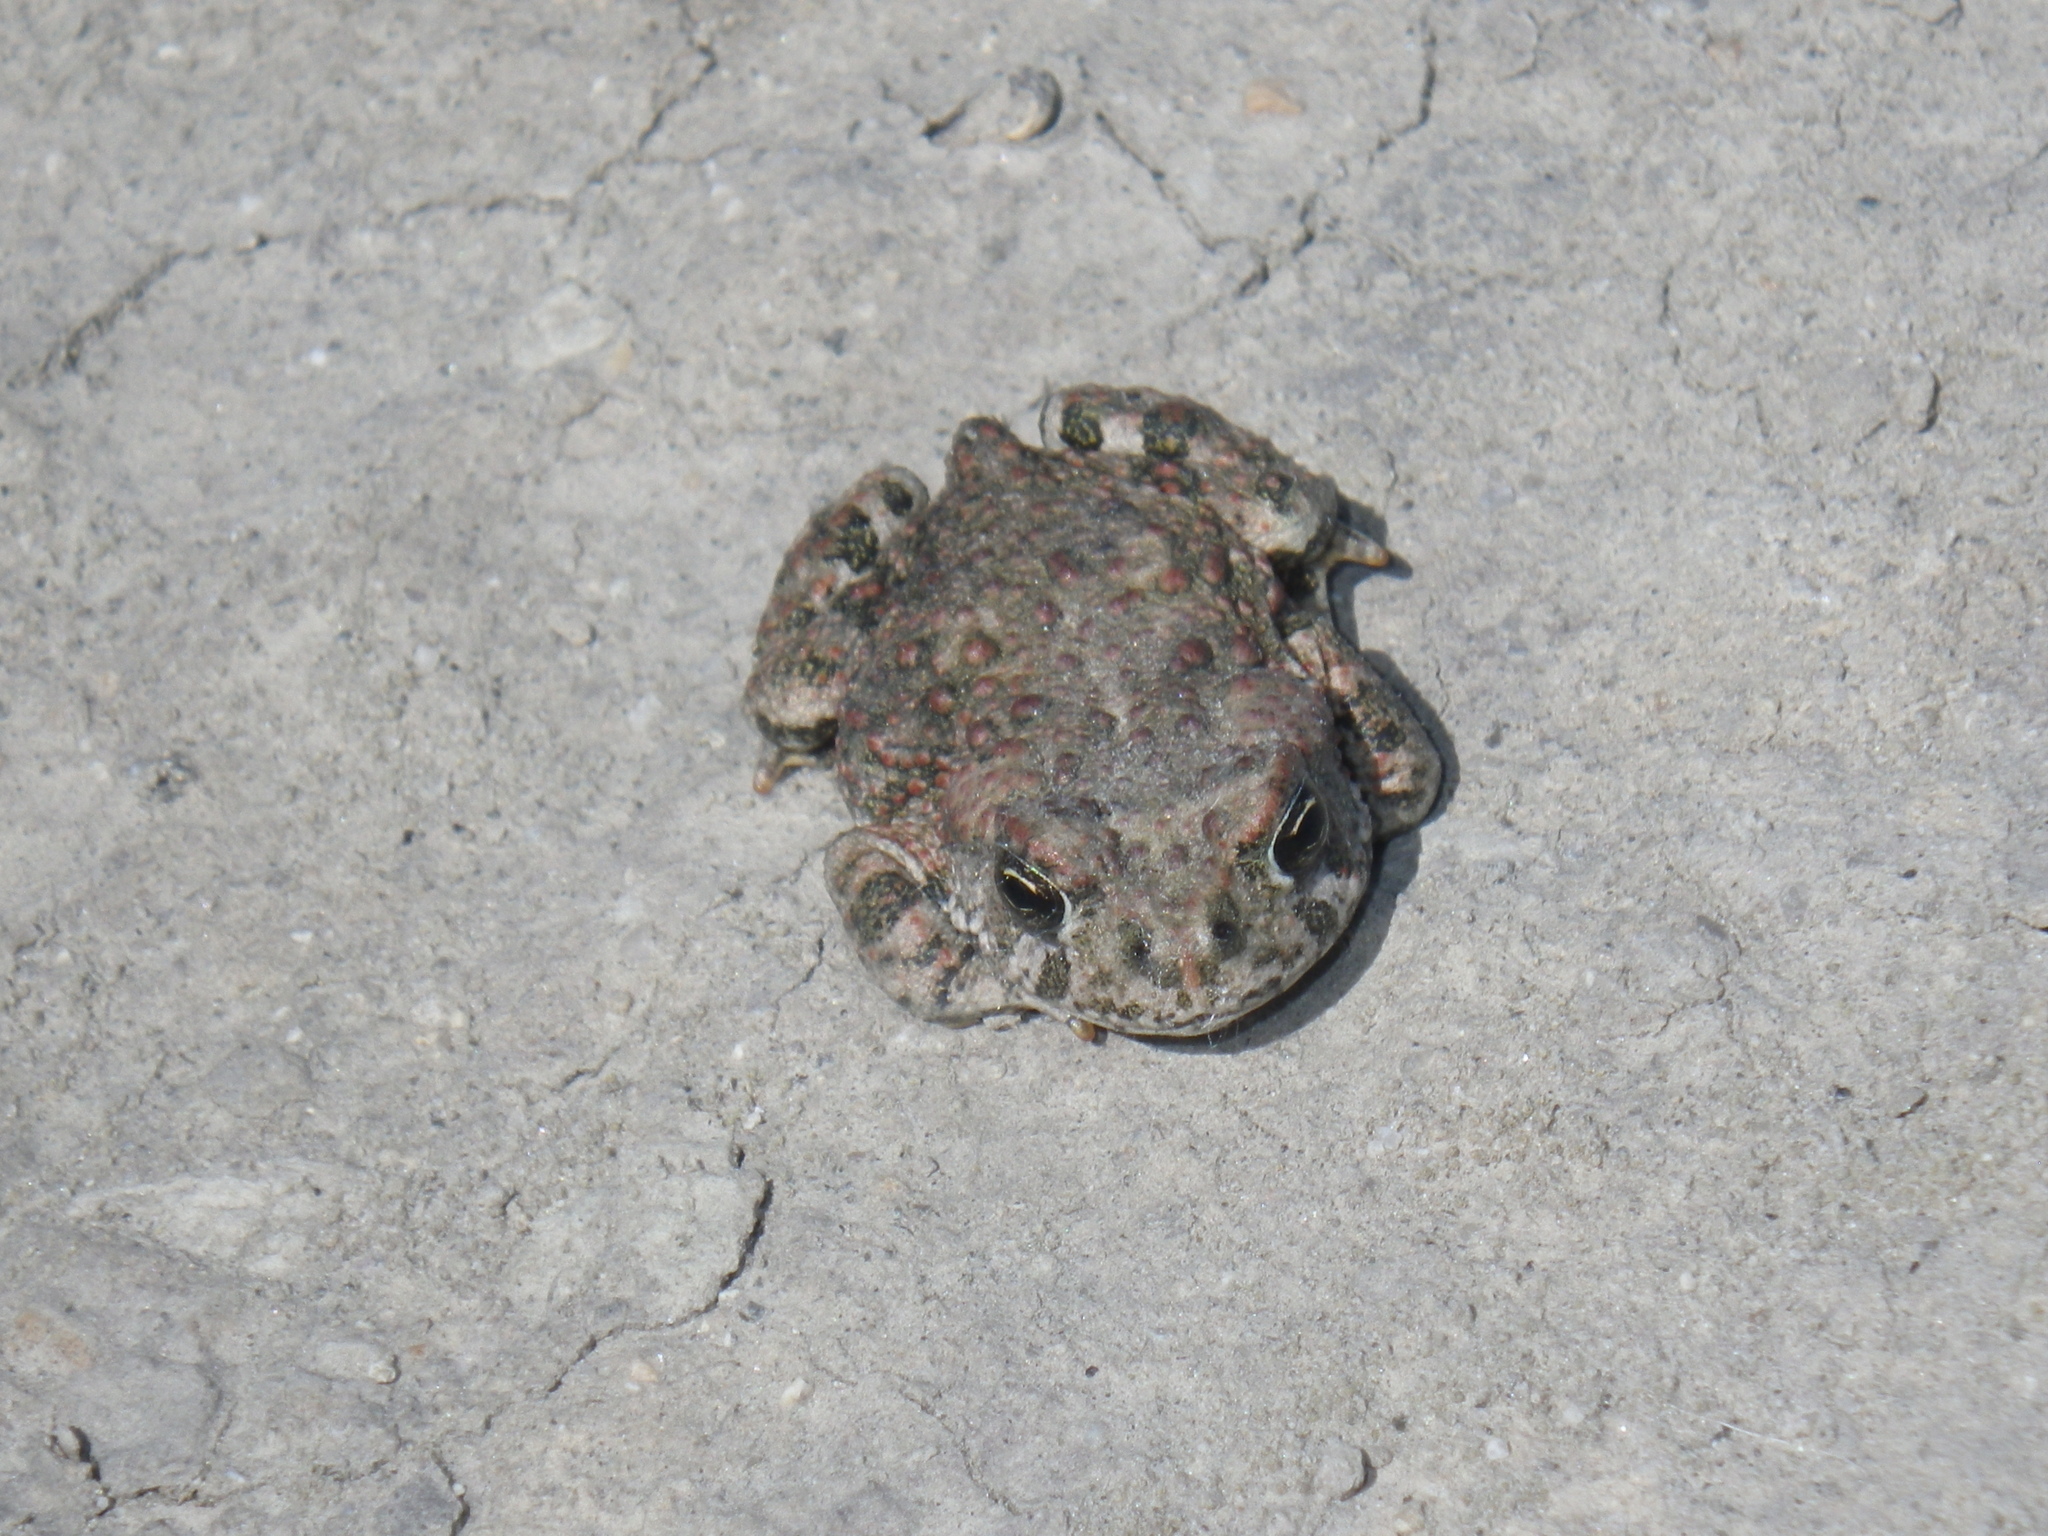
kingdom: Animalia
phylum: Chordata
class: Amphibia
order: Anura
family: Bufonidae
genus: Anaxyrus
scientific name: Anaxyrus boreas
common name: Western toad
